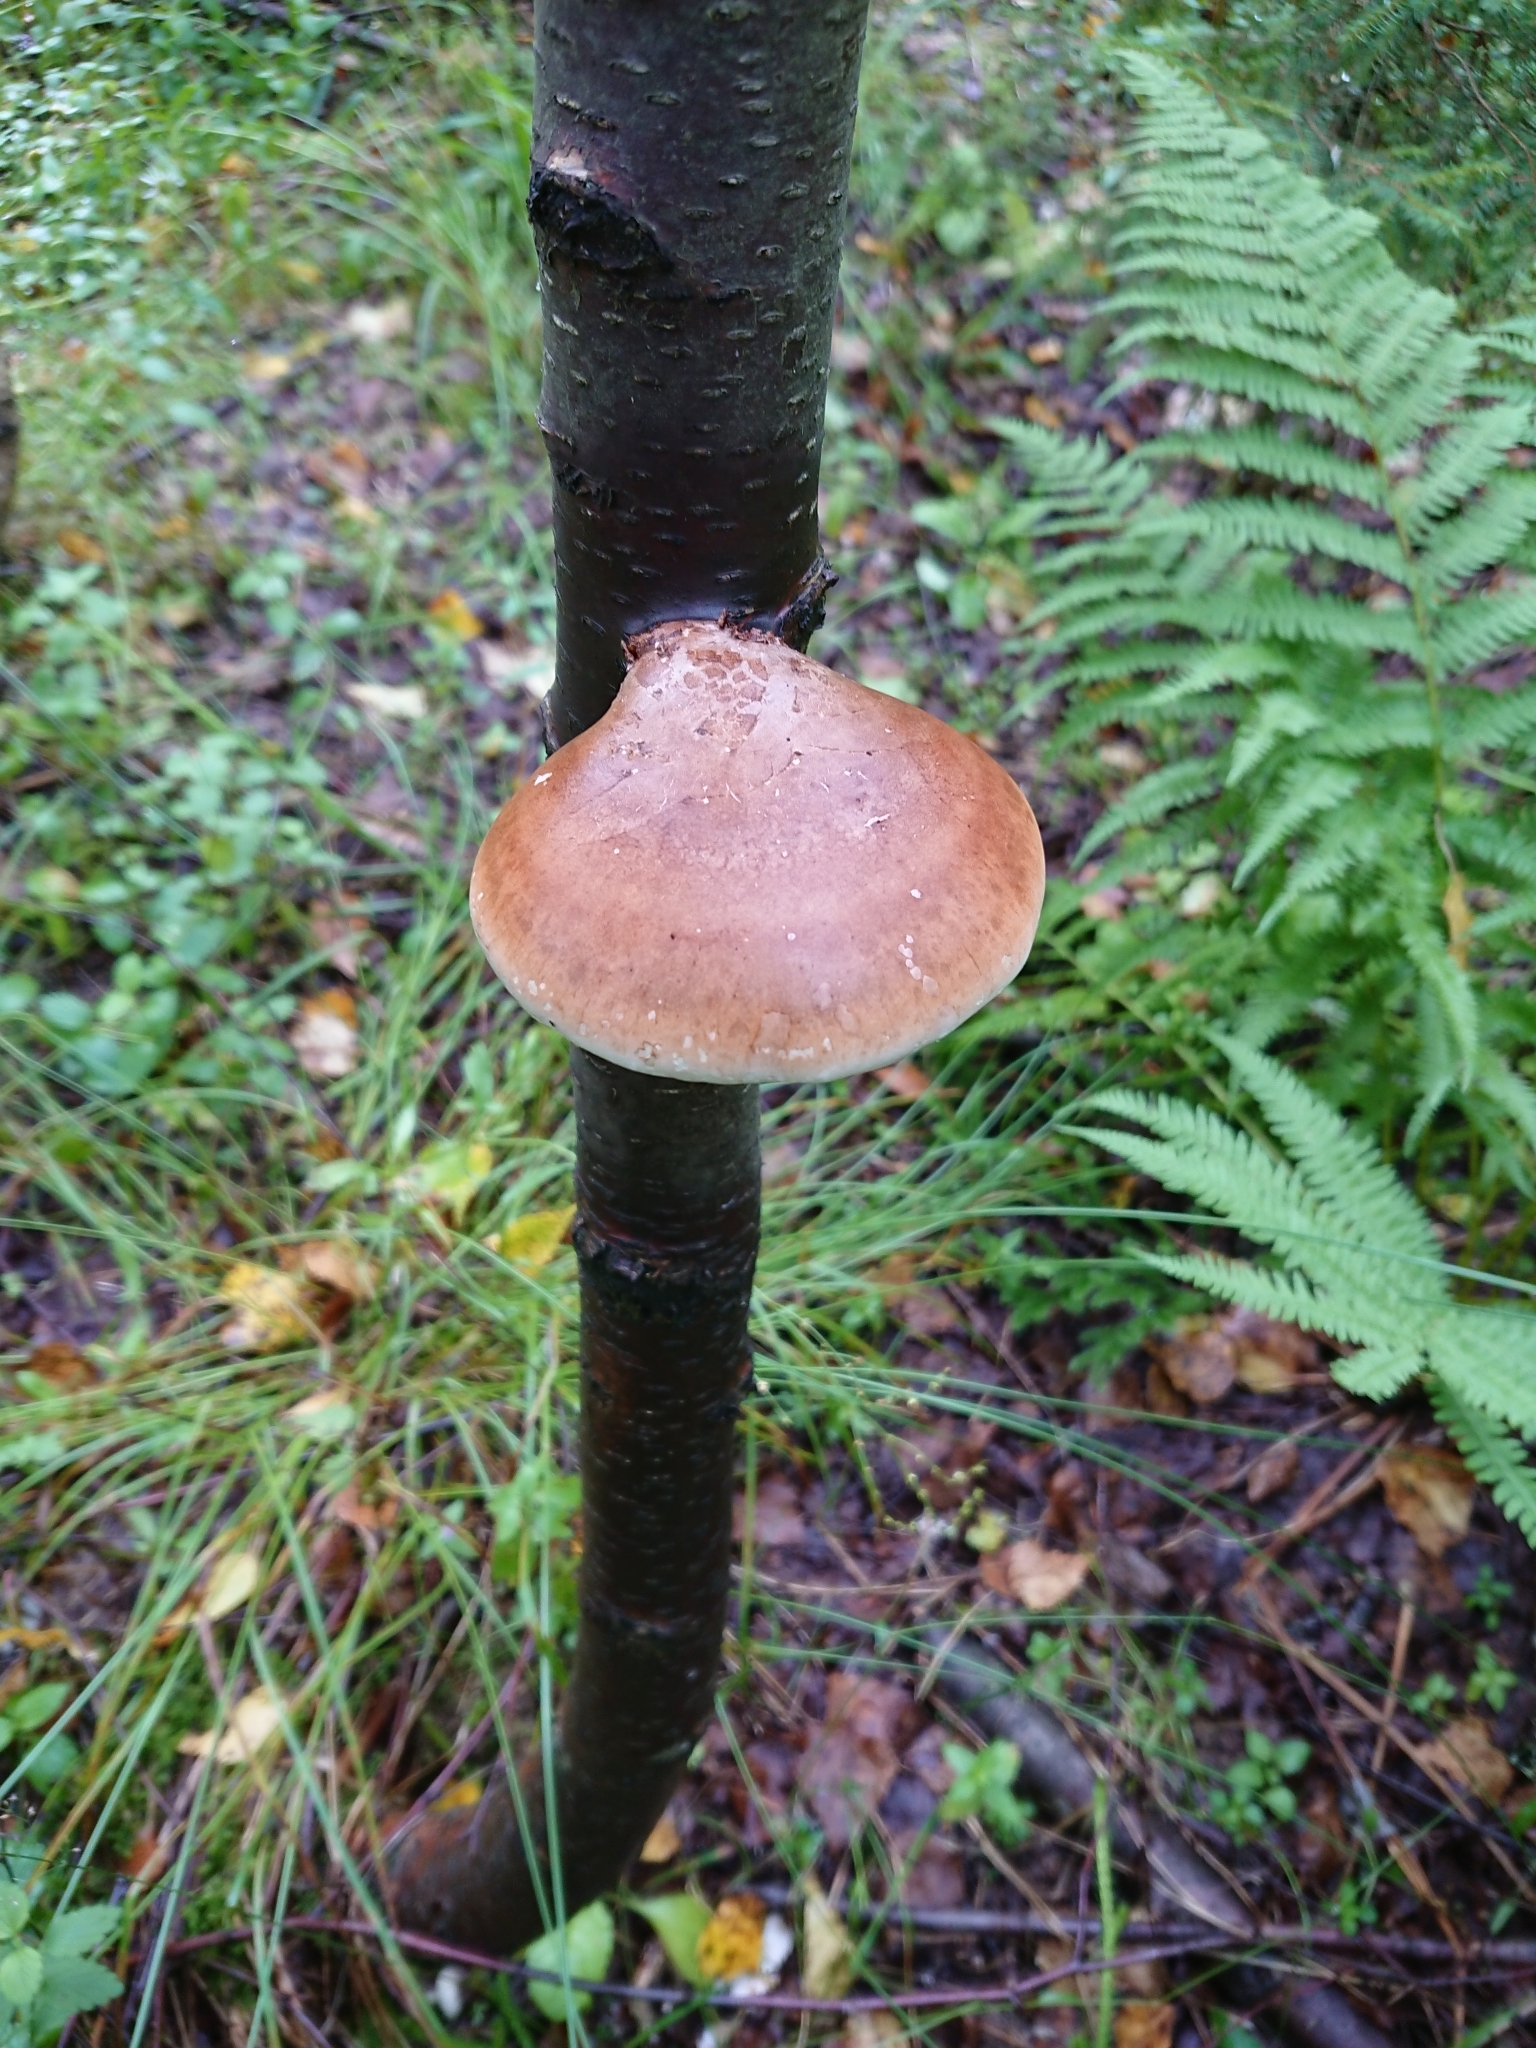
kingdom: Fungi
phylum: Basidiomycota
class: Agaricomycetes
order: Polyporales
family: Fomitopsidaceae
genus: Fomitopsis
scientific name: Fomitopsis betulina
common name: Birch polypore
